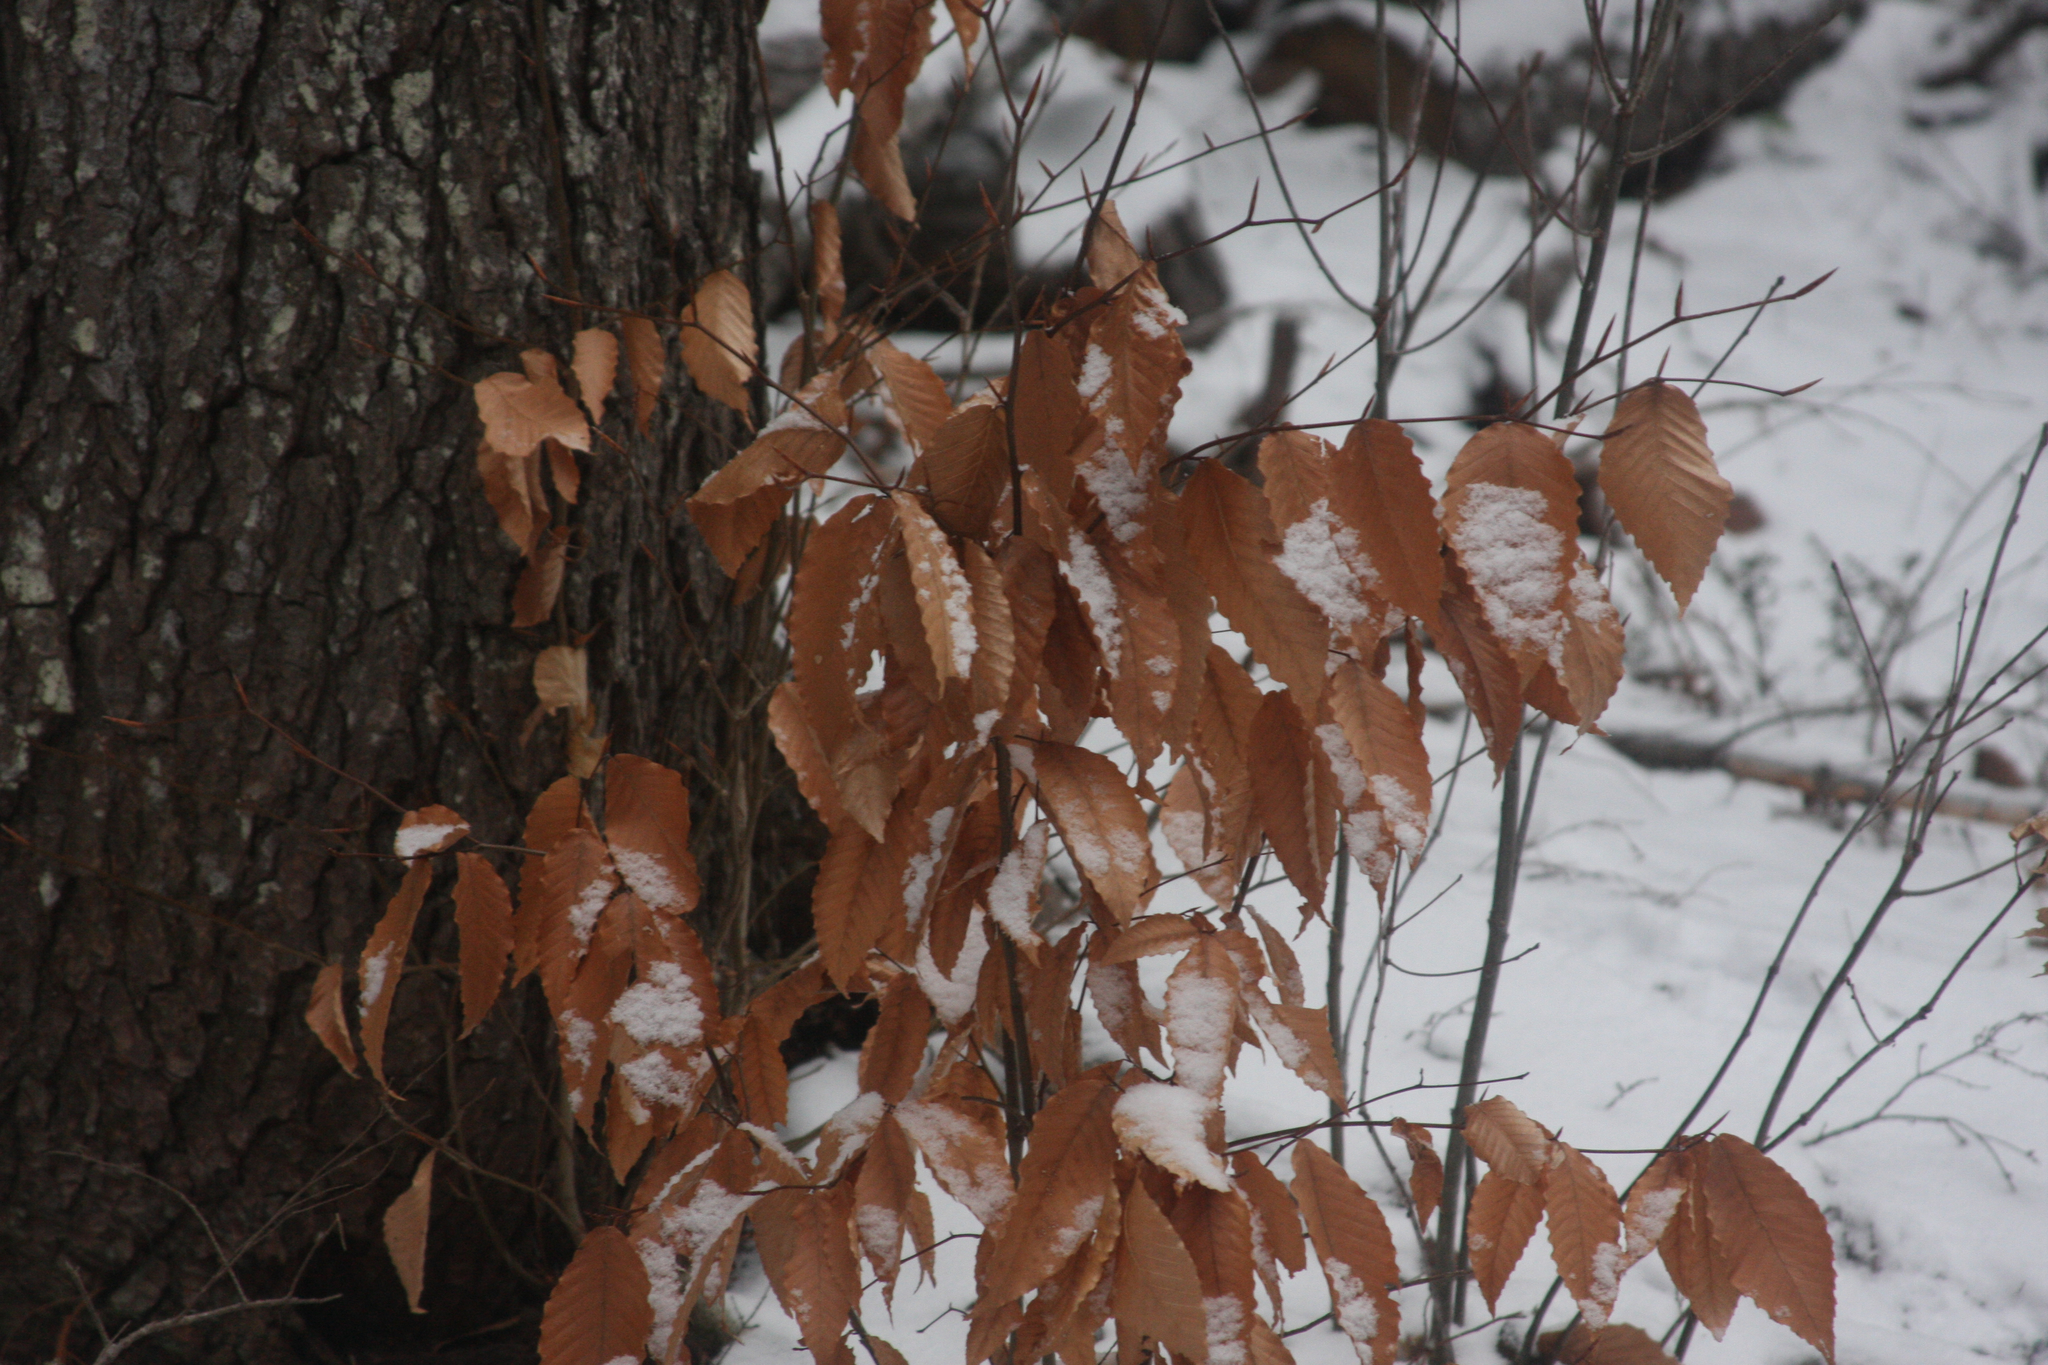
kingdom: Plantae
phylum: Tracheophyta
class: Magnoliopsida
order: Fagales
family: Fagaceae
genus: Fagus
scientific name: Fagus grandifolia
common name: American beech
